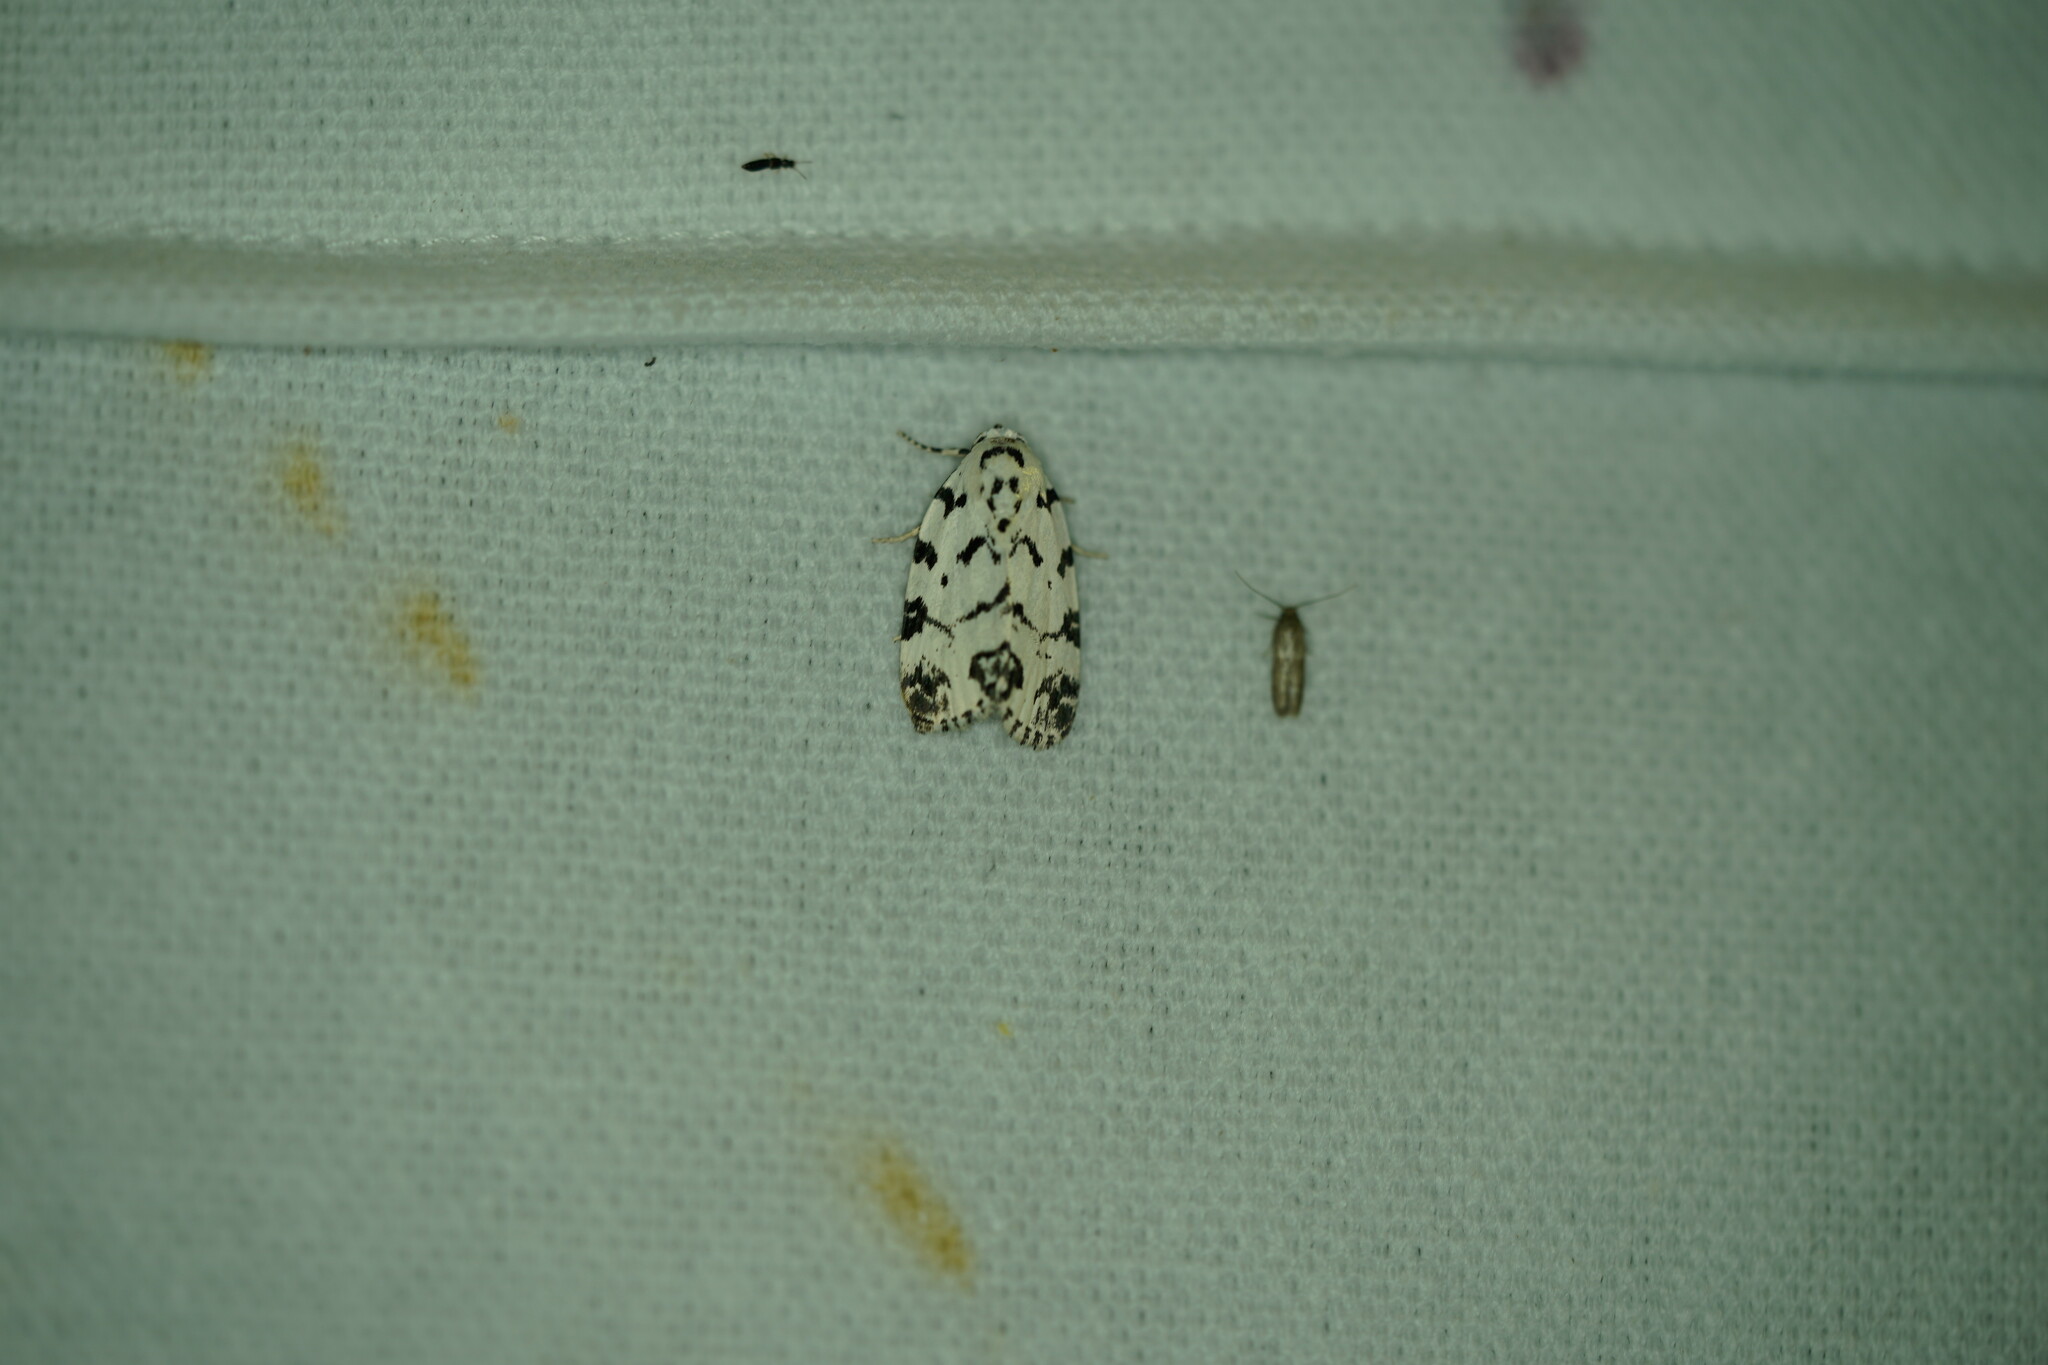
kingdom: Animalia
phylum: Arthropoda
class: Insecta
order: Lepidoptera
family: Noctuidae
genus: Polygrammate
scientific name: Polygrammate hebraeicum
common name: Hebrew moth
